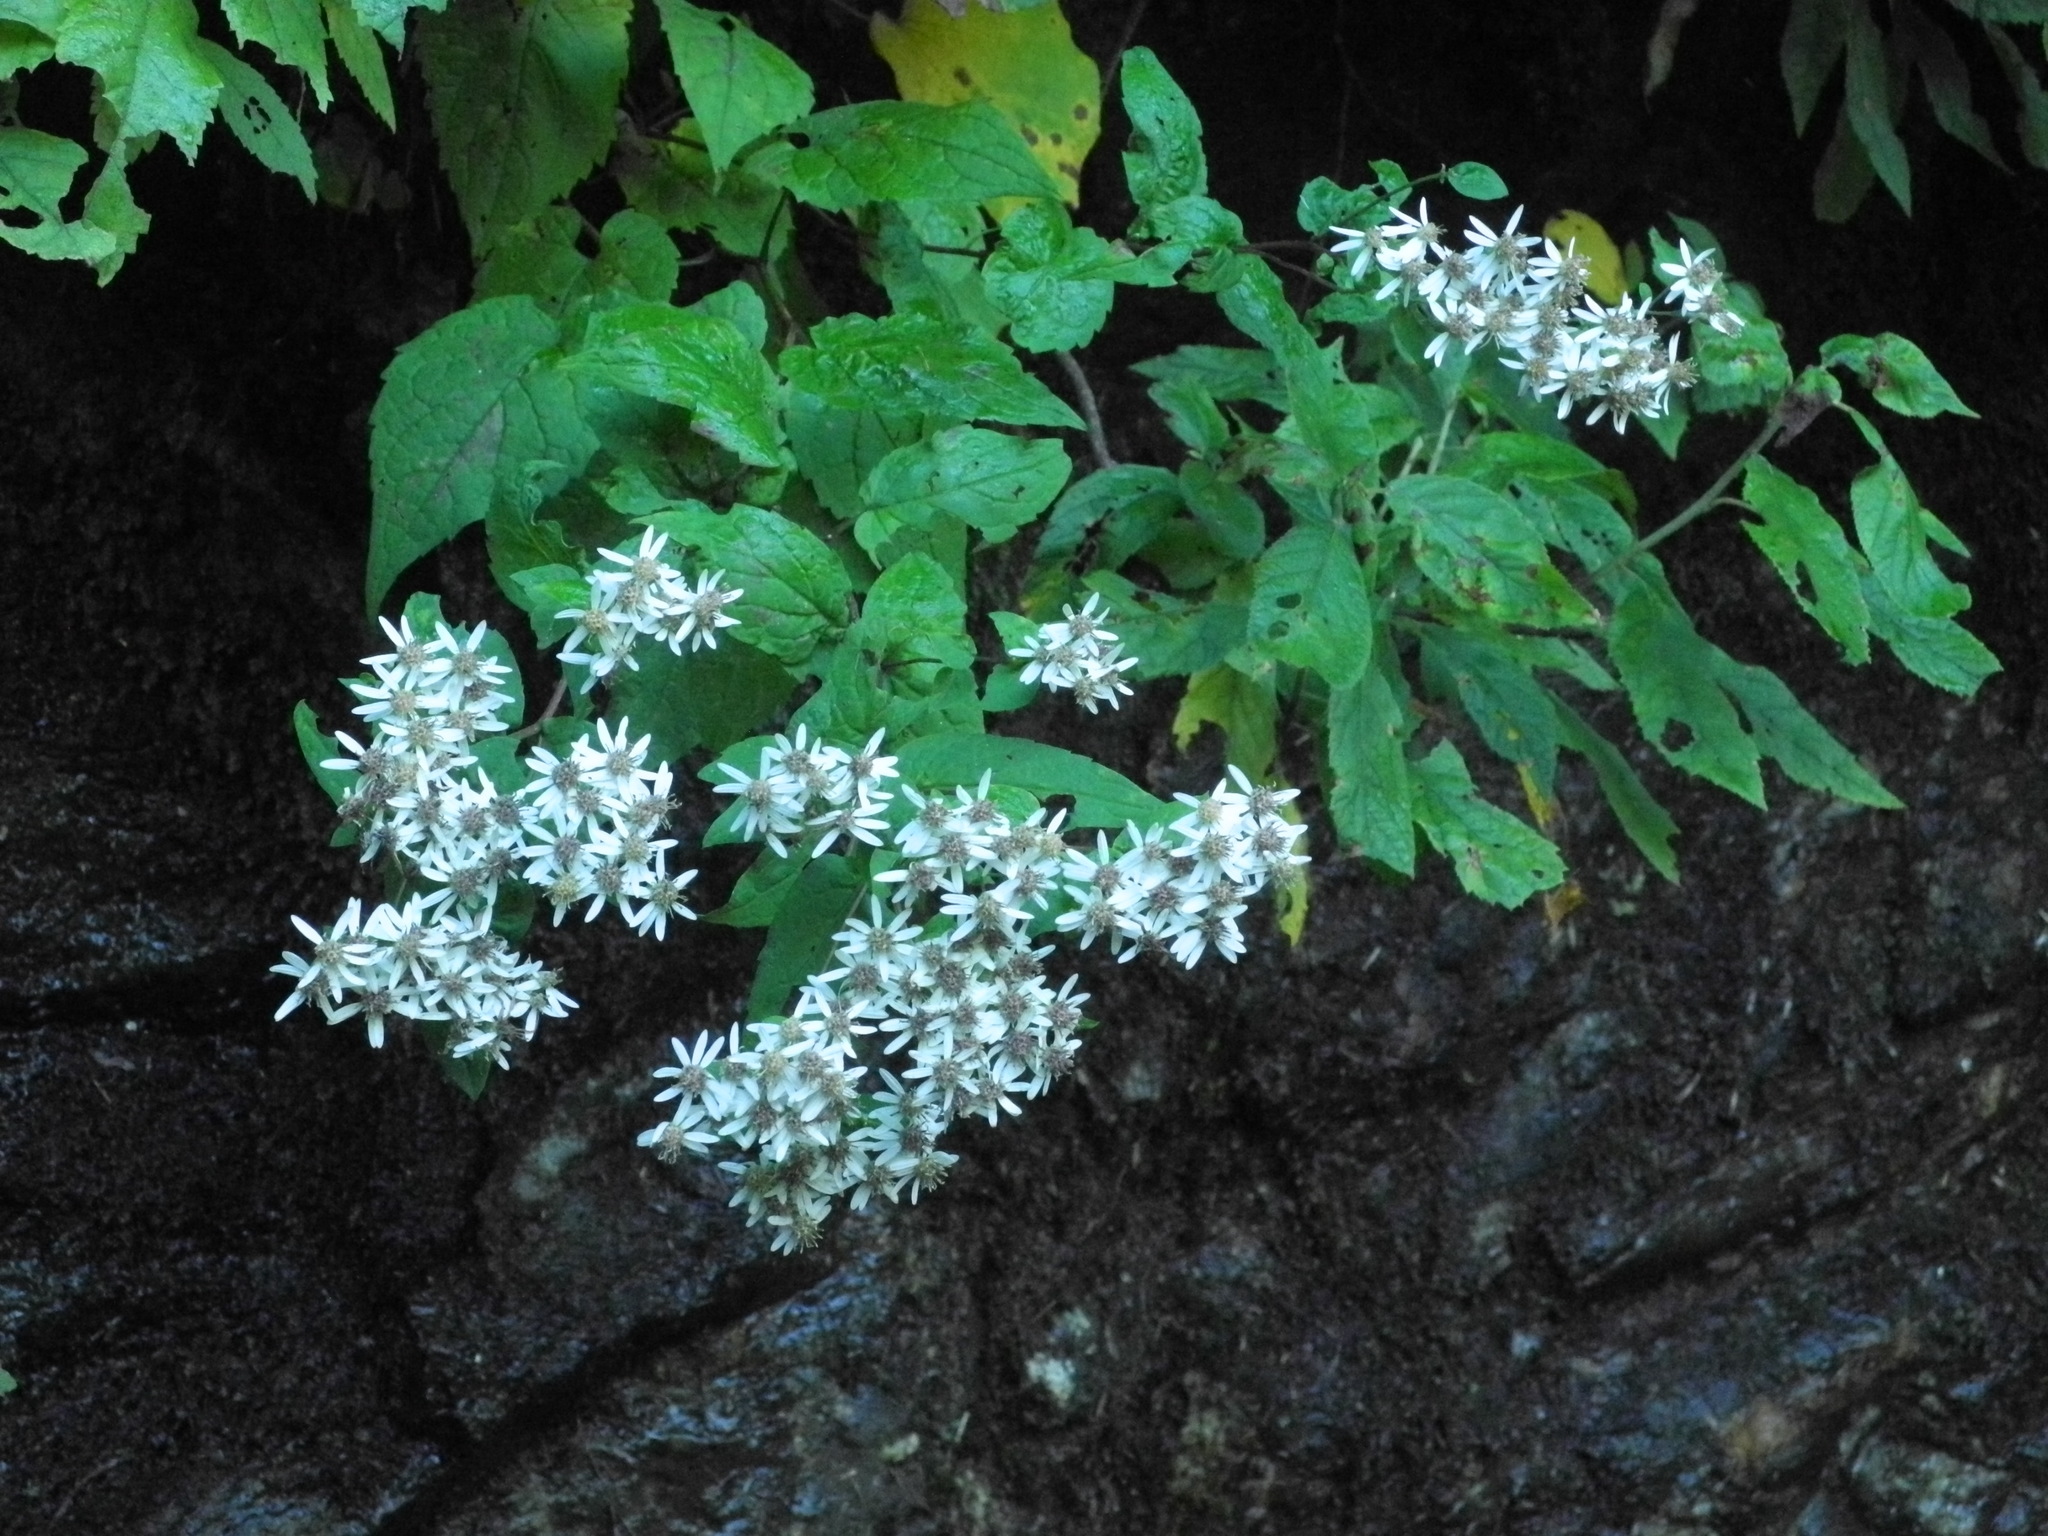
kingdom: Plantae
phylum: Tracheophyta
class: Magnoliopsida
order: Asterales
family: Asteraceae
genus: Eurybia
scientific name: Eurybia divaricata
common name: White wood aster
